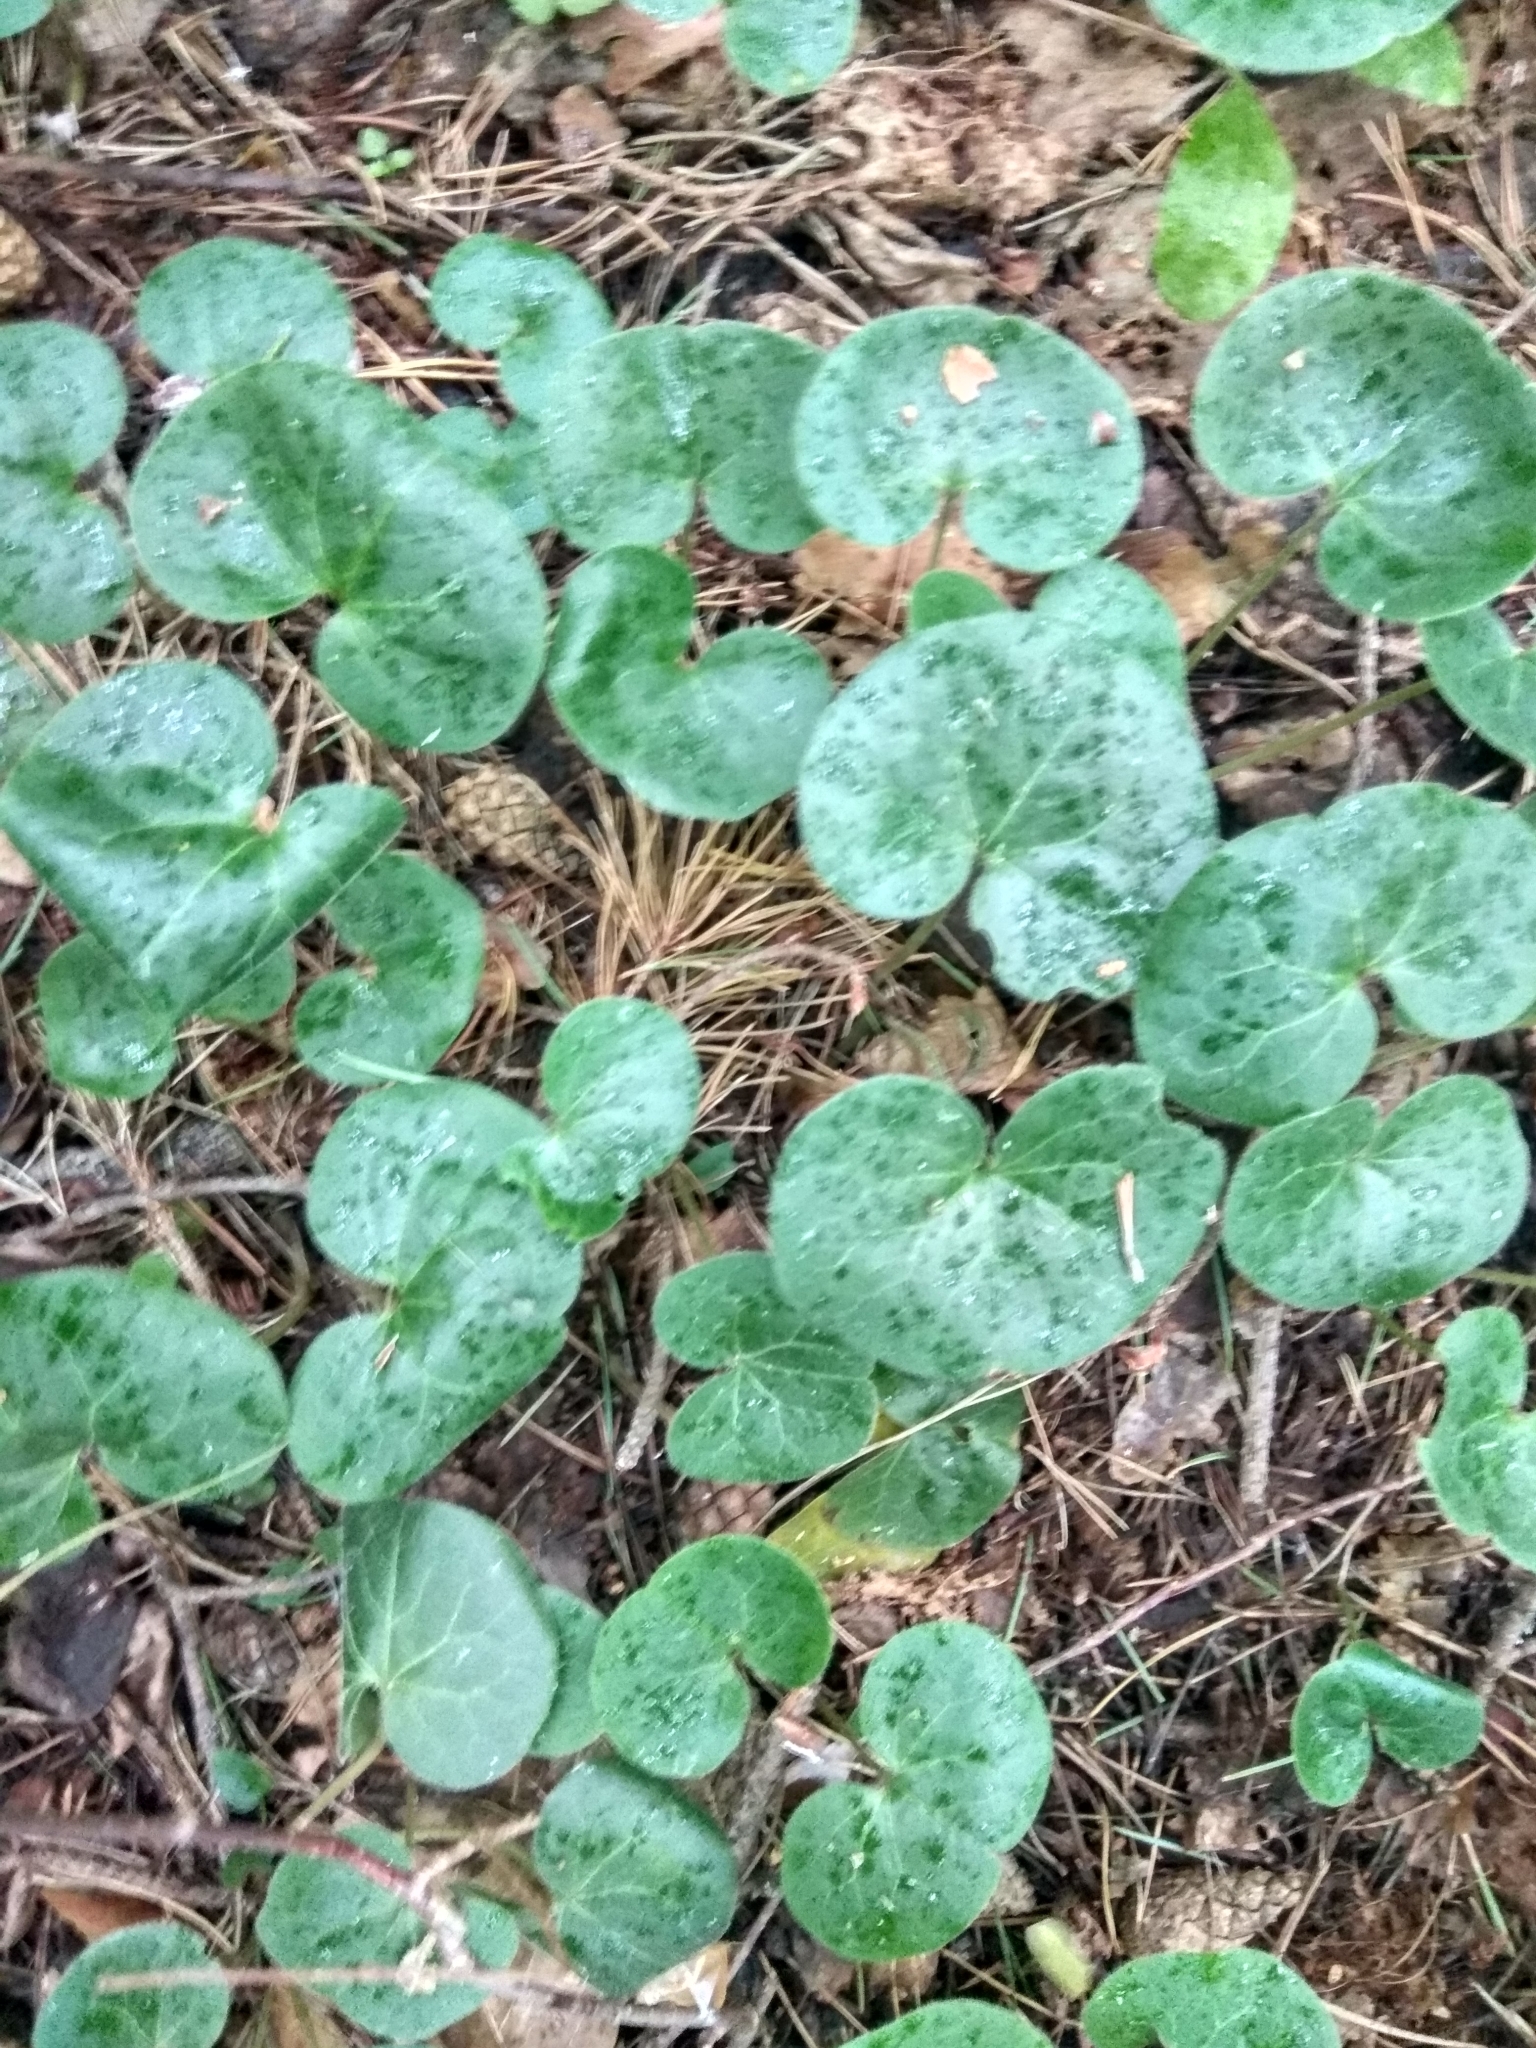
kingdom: Plantae
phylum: Tracheophyta
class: Magnoliopsida
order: Piperales
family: Aristolochiaceae
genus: Asarum
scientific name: Asarum europaeum
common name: Asarabacca
